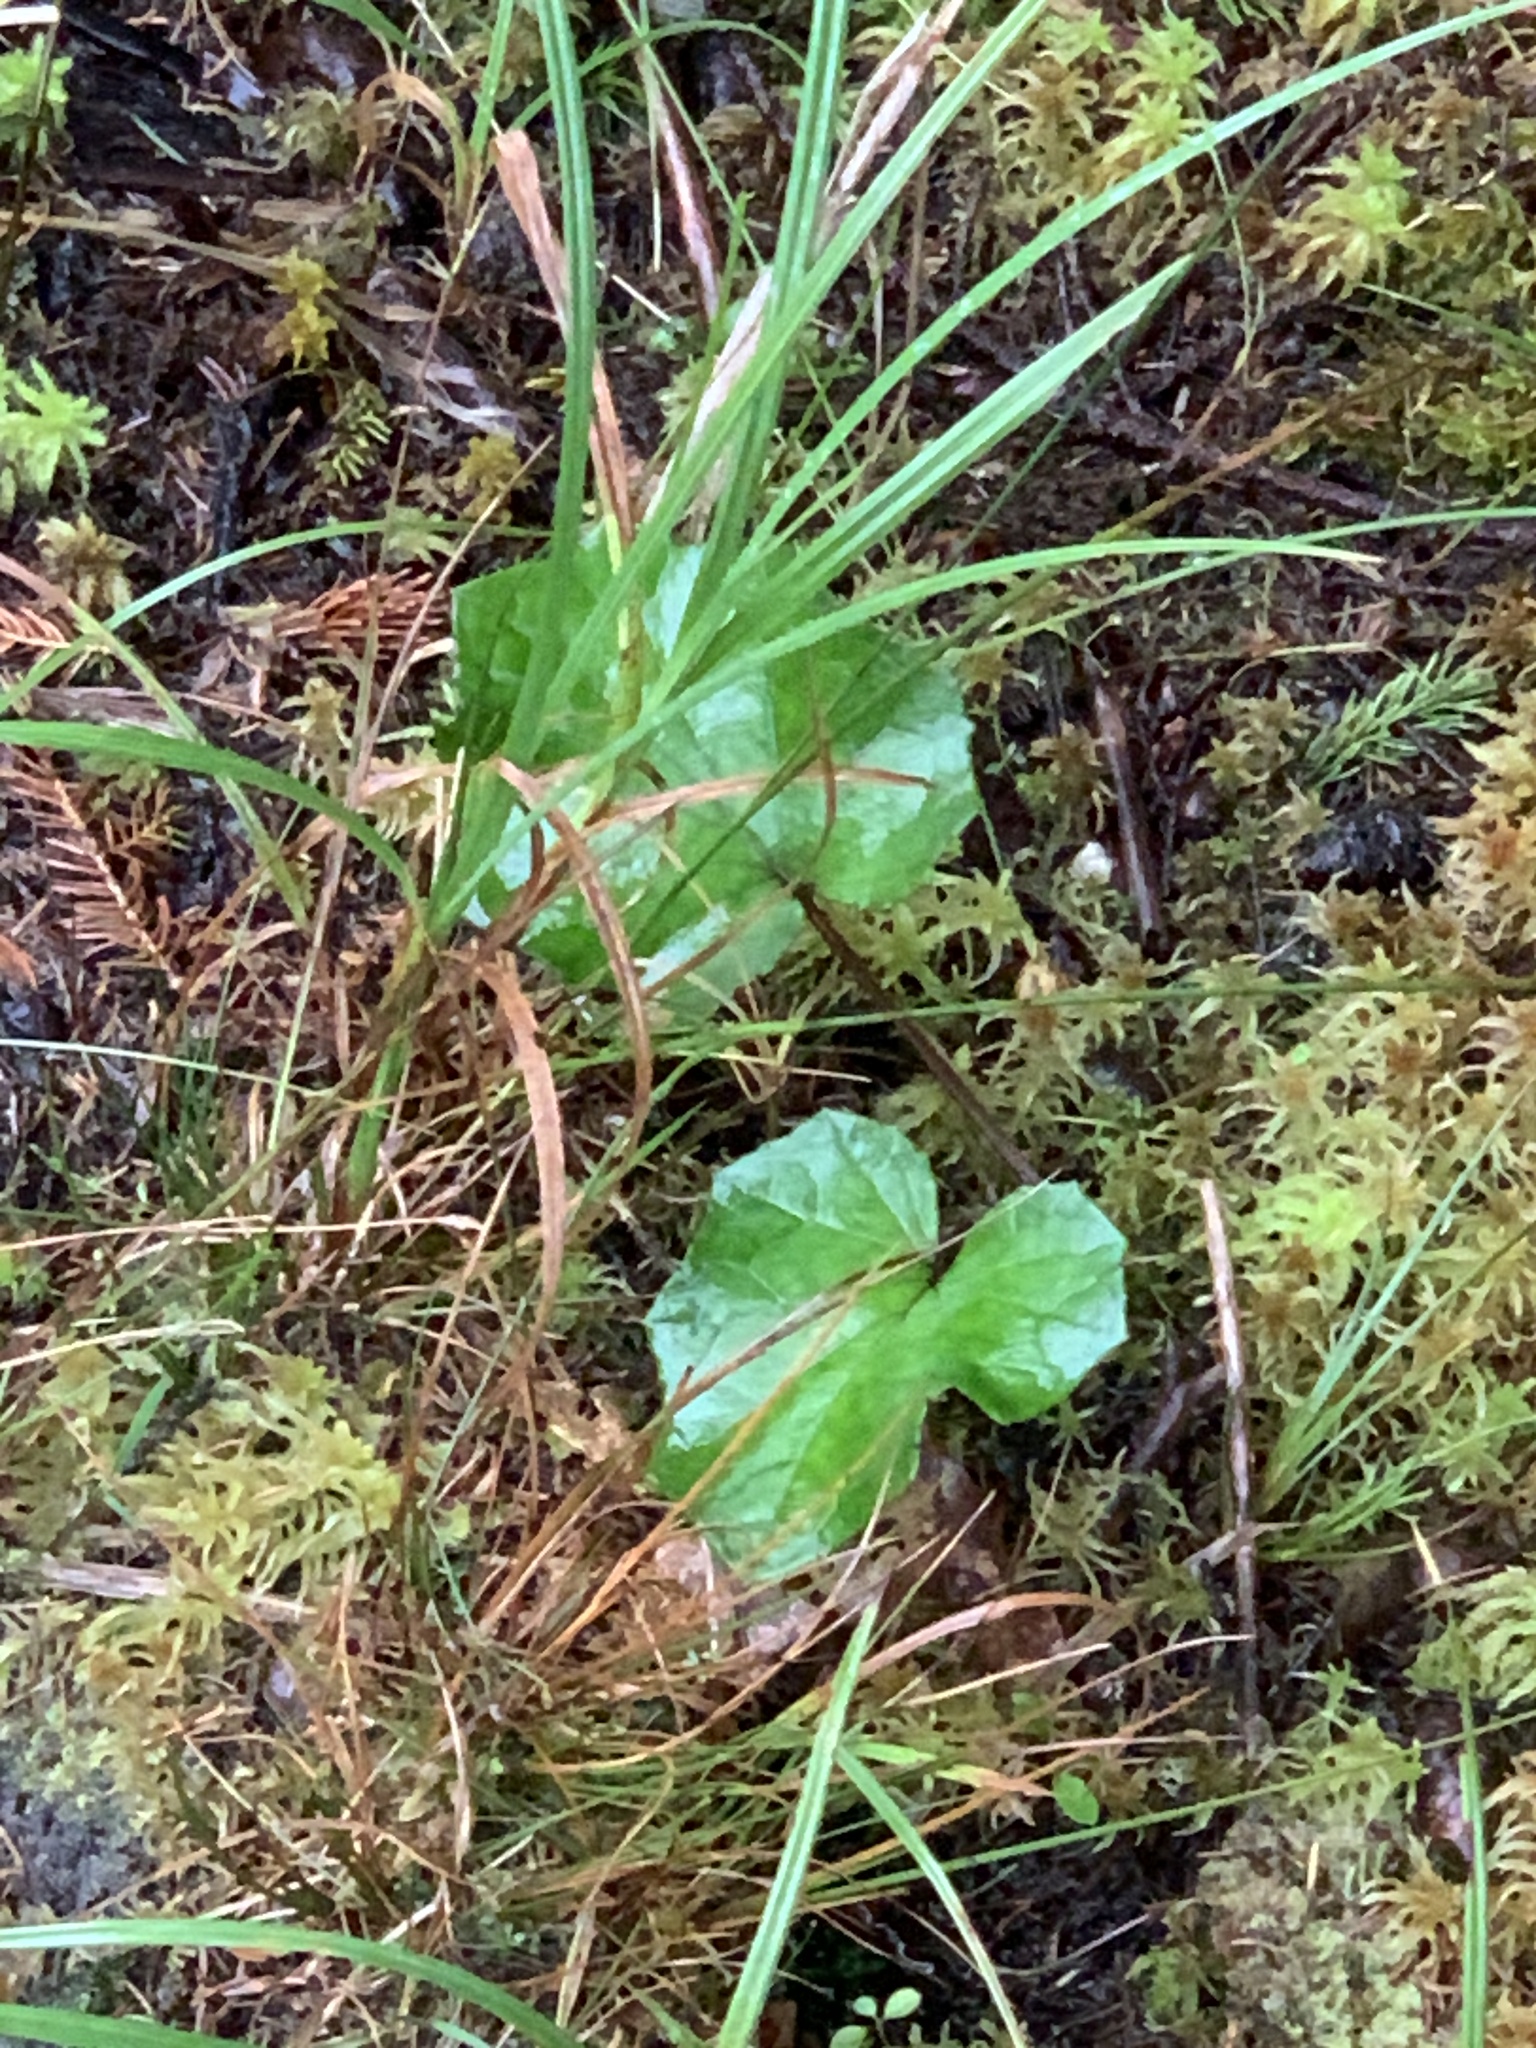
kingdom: Plantae
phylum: Tracheophyta
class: Magnoliopsida
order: Asterales
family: Asteraceae
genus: Tussilago
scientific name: Tussilago farfara
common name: Coltsfoot
